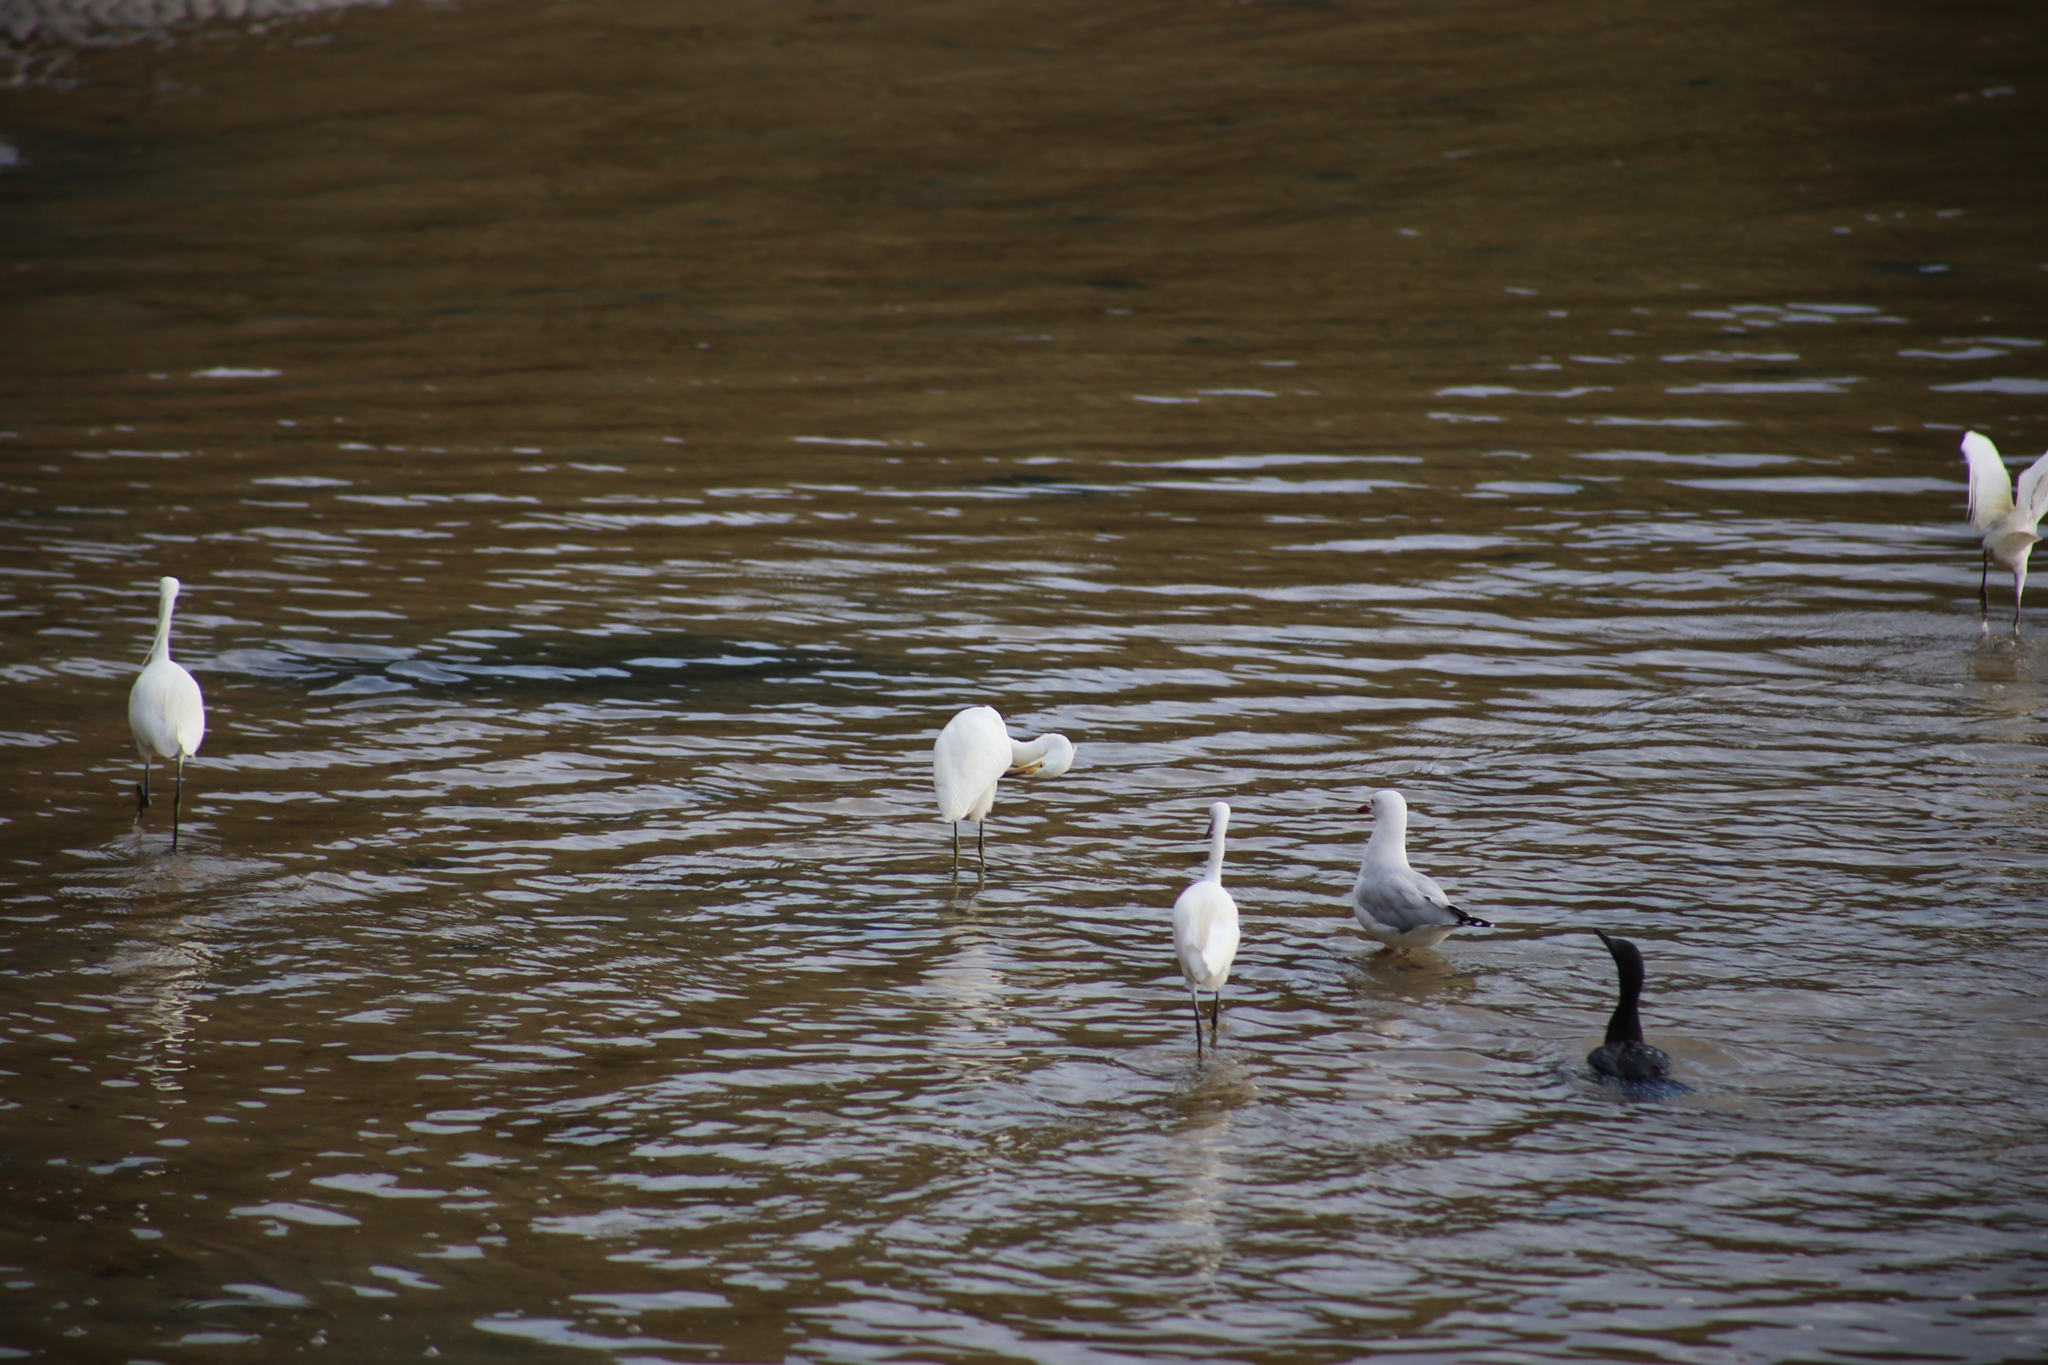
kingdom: Animalia
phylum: Chordata
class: Aves
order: Charadriiformes
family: Laridae
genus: Chroicocephalus
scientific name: Chroicocephalus novaehollandiae
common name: Silver gull
